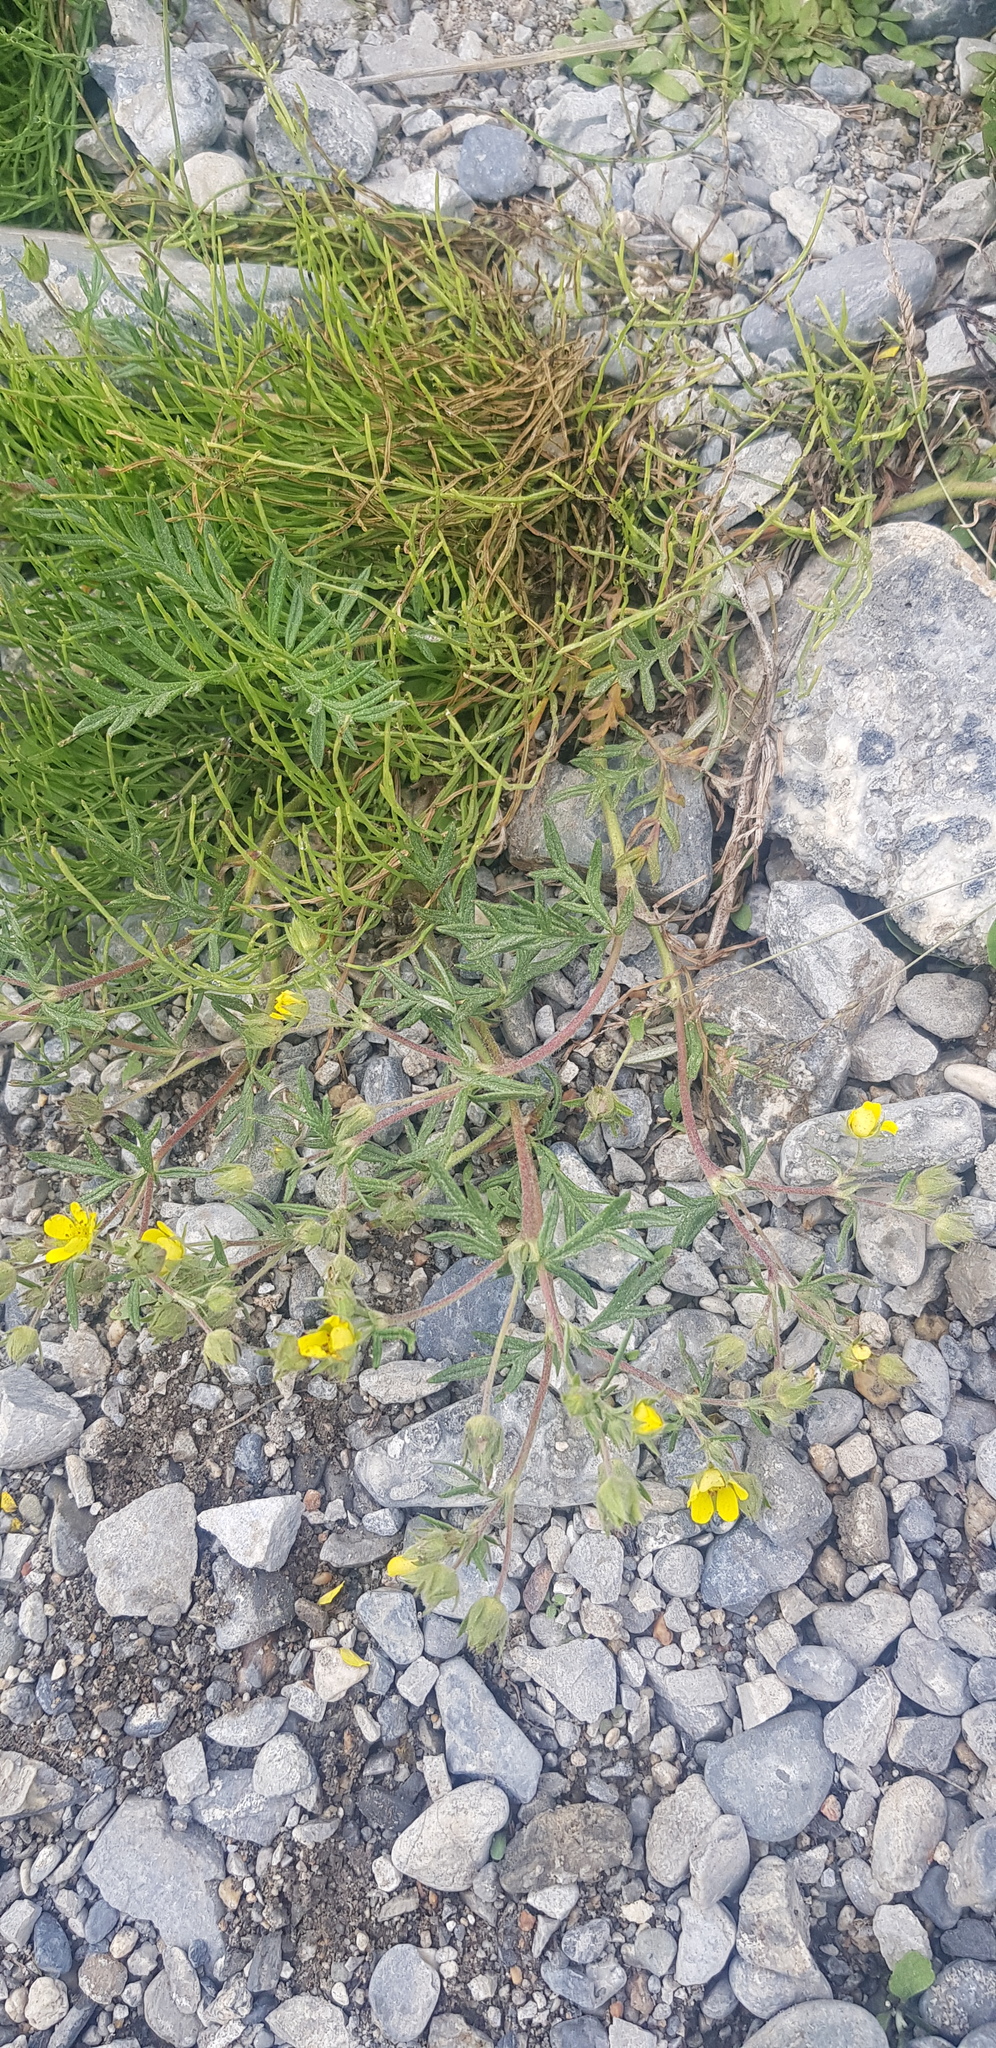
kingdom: Plantae
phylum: Tracheophyta
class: Magnoliopsida
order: Rosales
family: Rosaceae
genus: Potentilla
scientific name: Potentilla supina
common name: Prostrate cinquefoil
